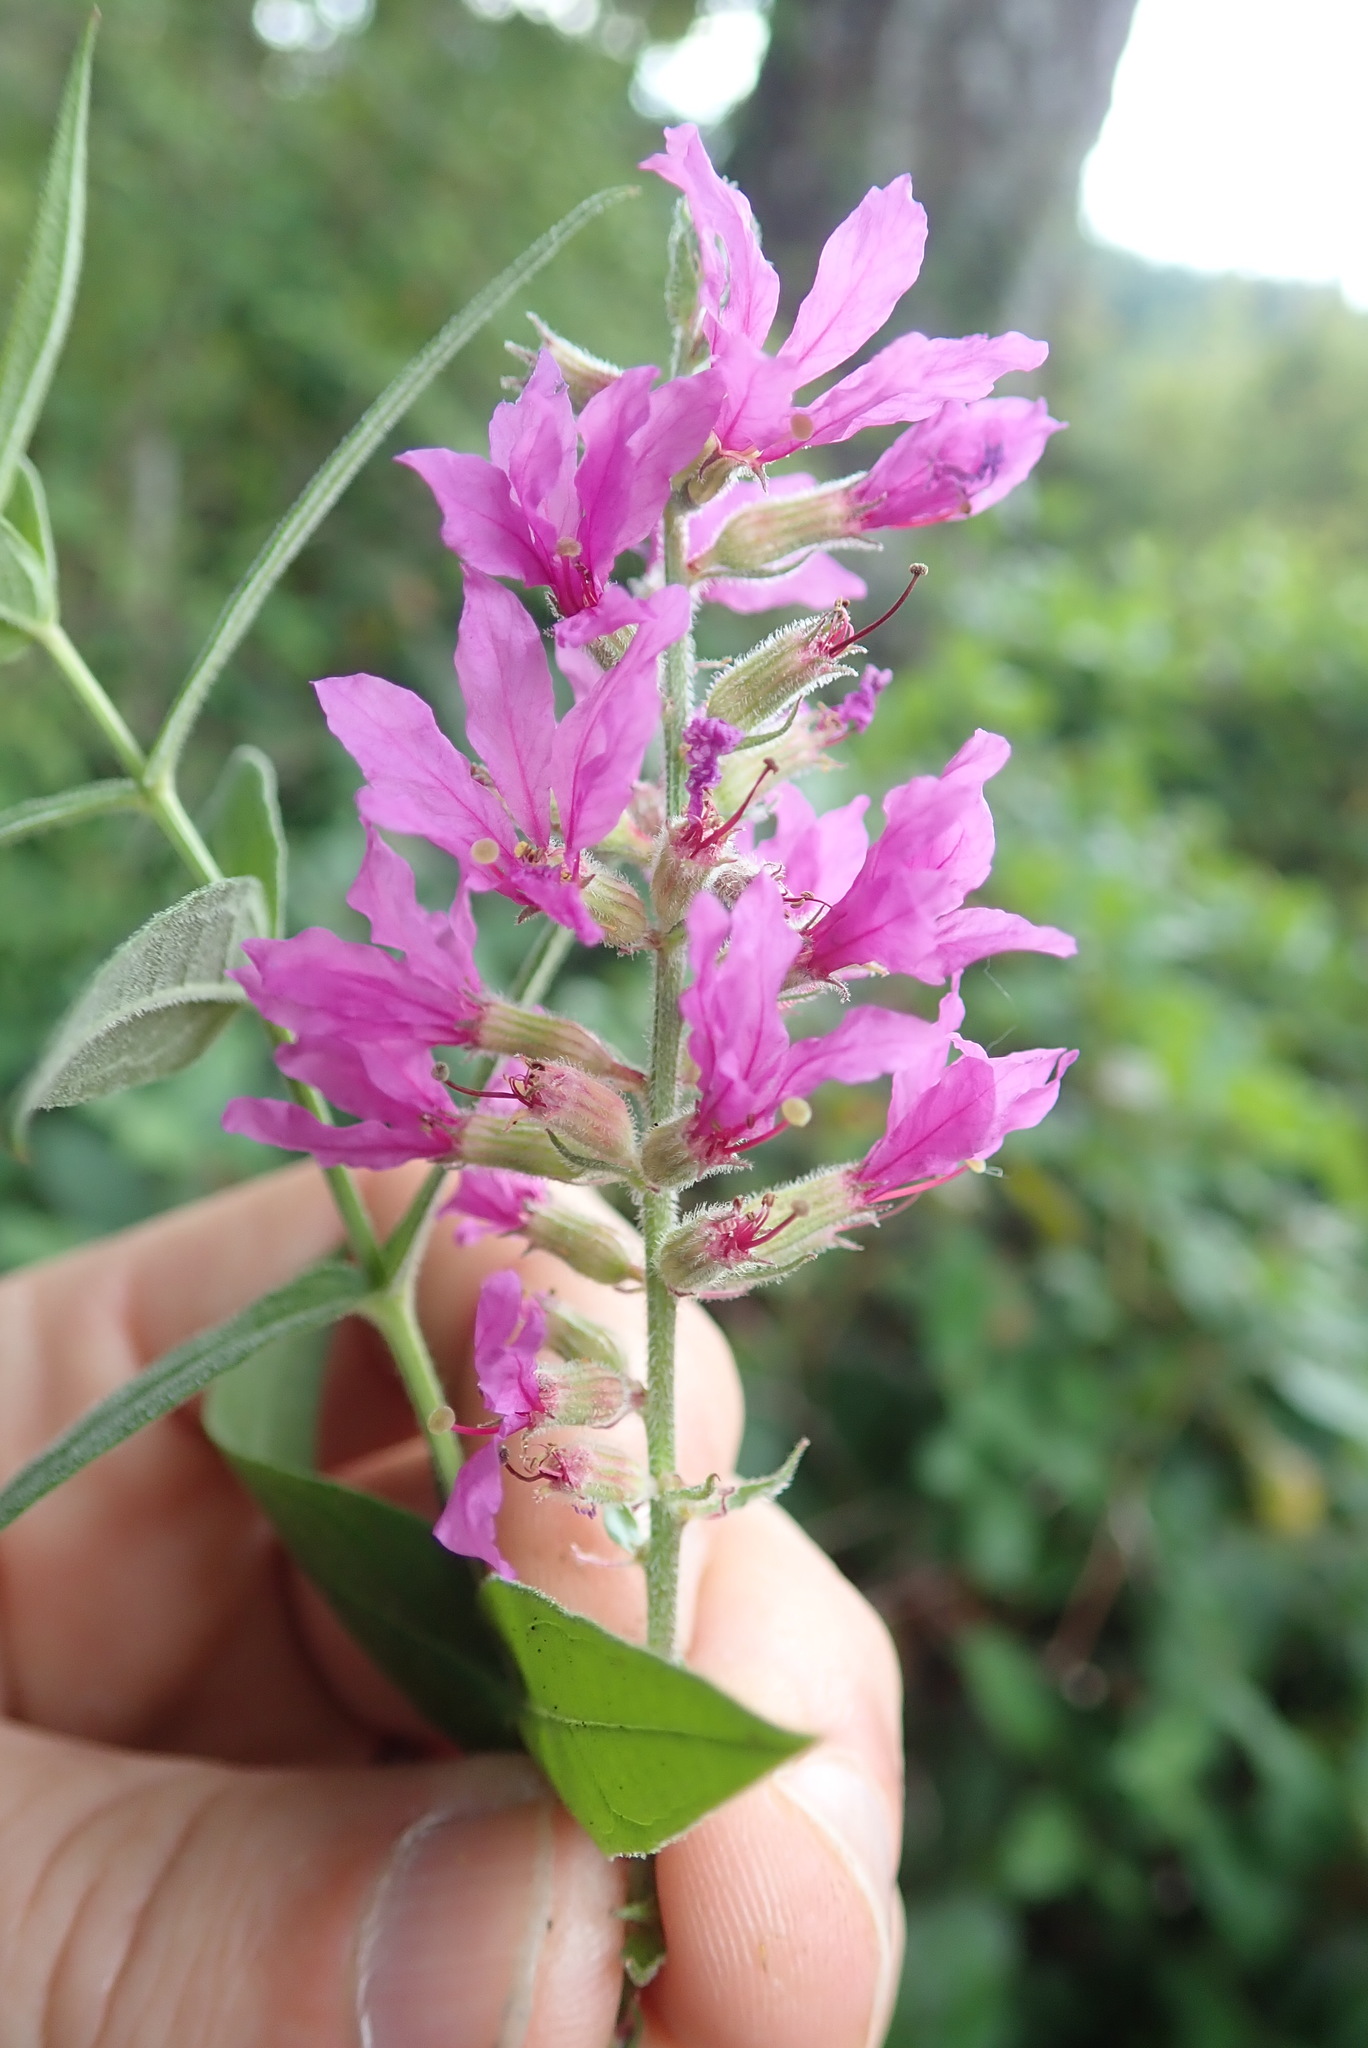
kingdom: Plantae
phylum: Tracheophyta
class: Magnoliopsida
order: Myrtales
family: Lythraceae
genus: Lythrum
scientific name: Lythrum salicaria
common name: Purple loosestrife
